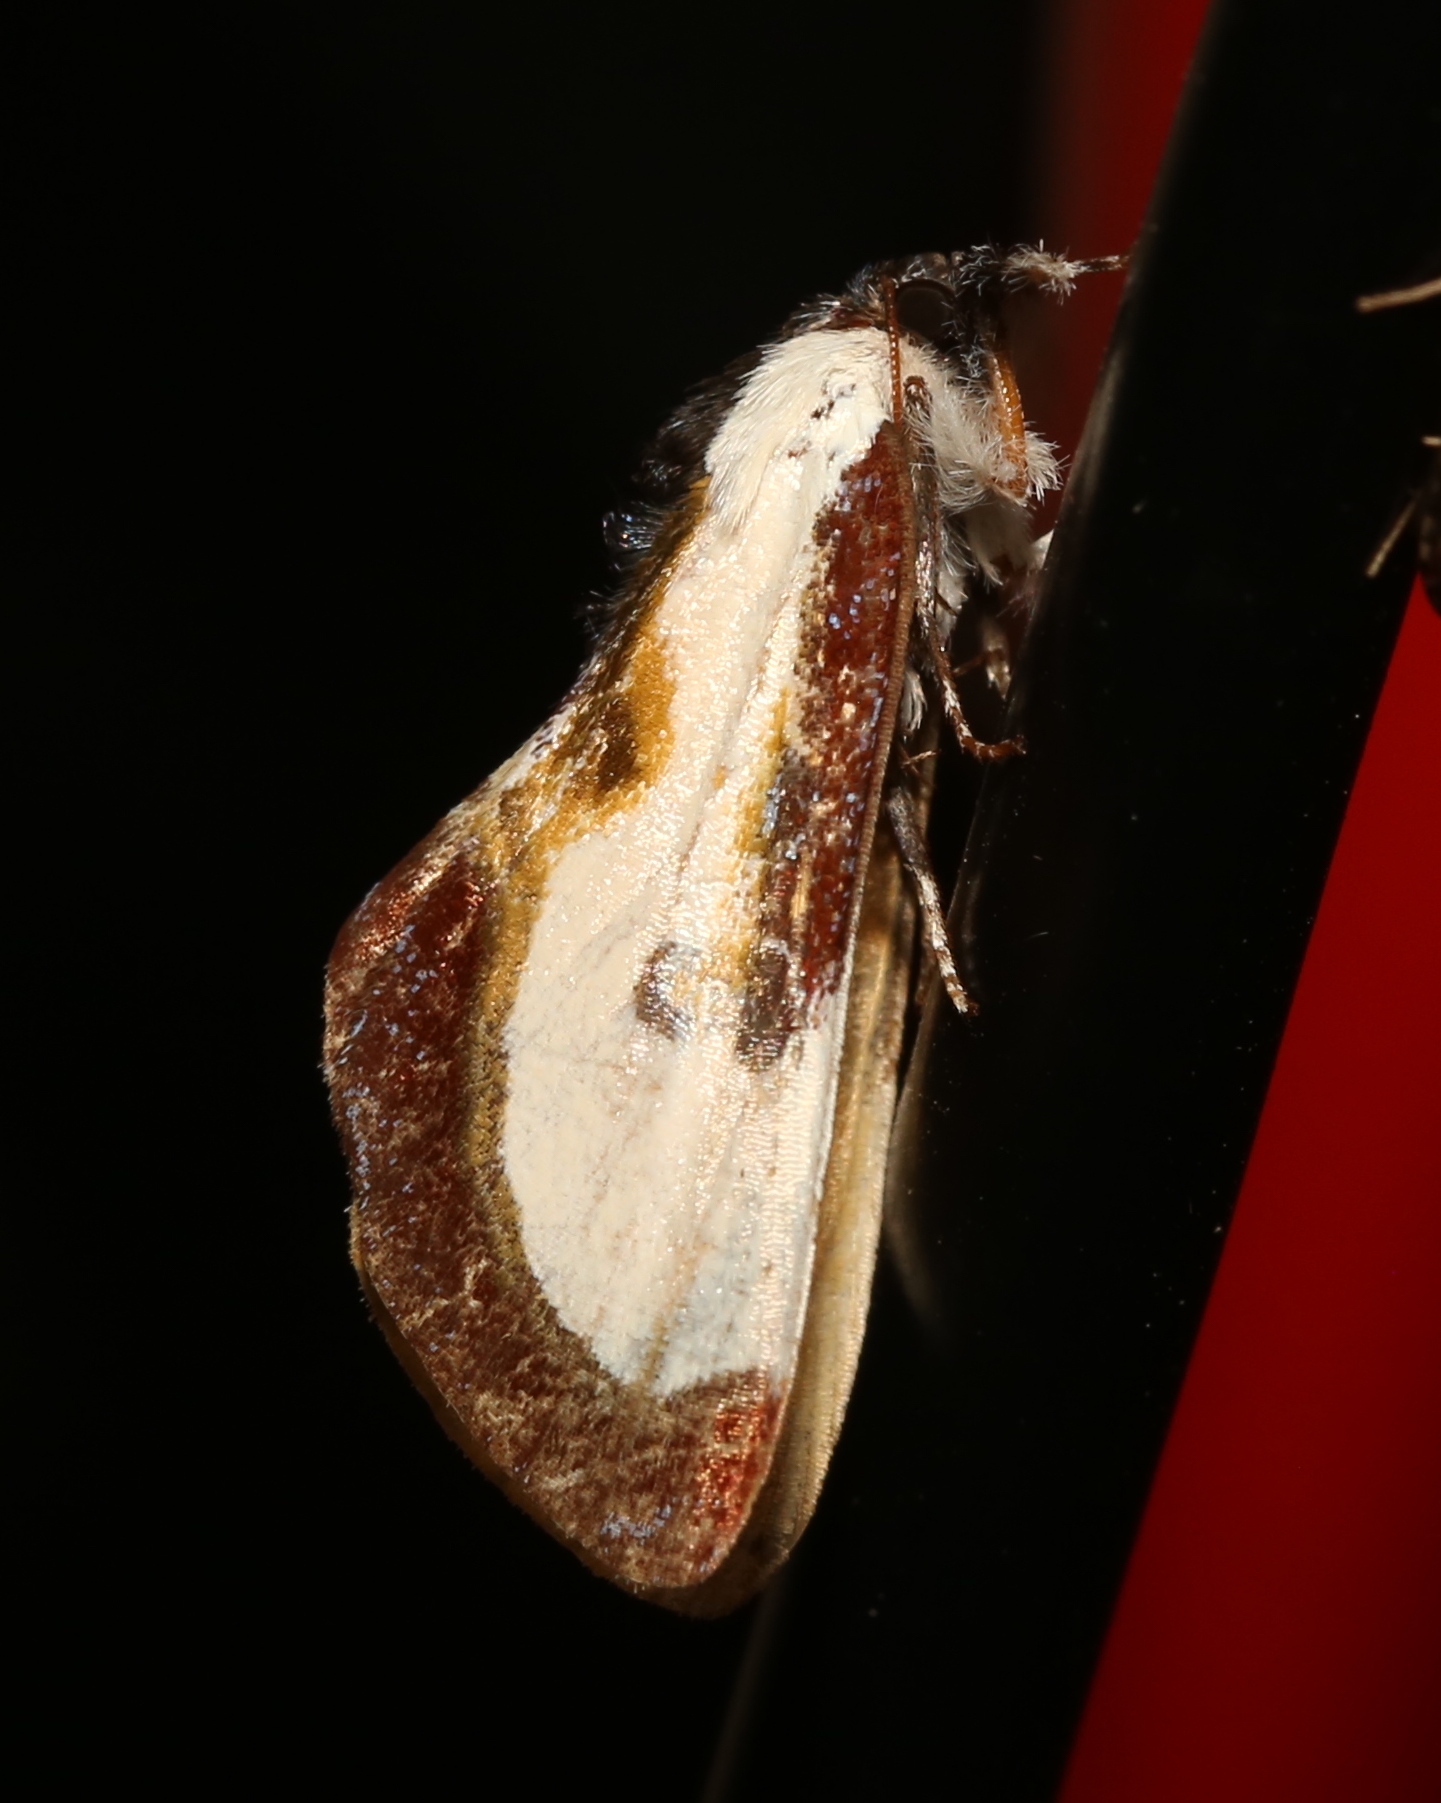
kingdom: Animalia
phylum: Arthropoda
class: Insecta
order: Lepidoptera
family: Noctuidae
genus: Eudryas
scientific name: Eudryas grata
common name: Beautiful wood-nymph
